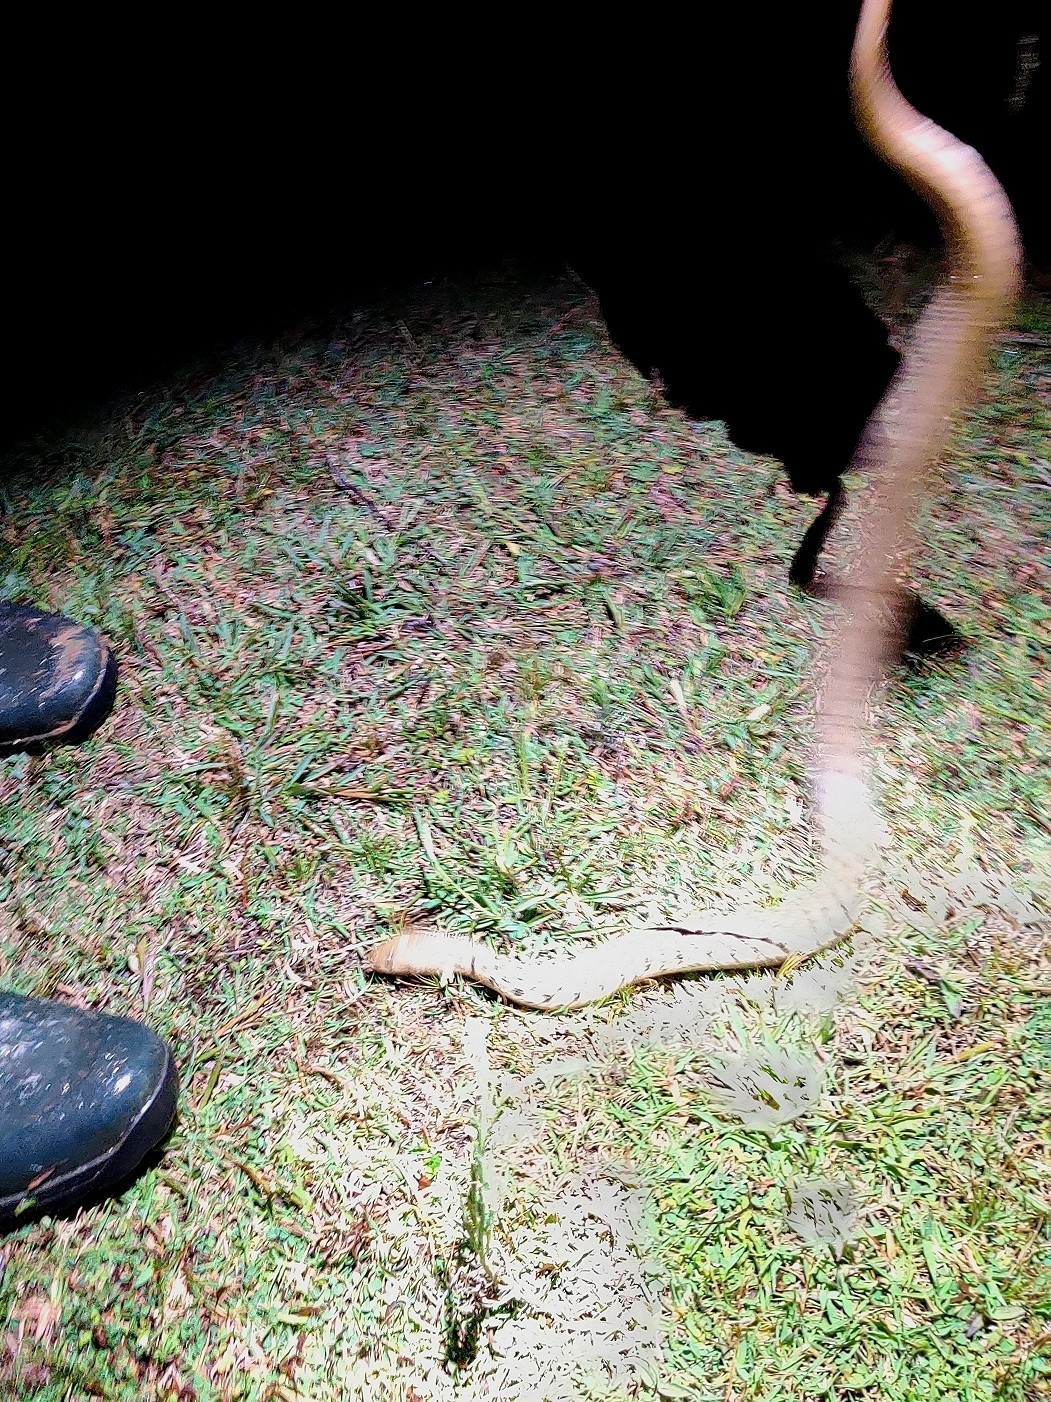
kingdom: Animalia
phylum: Chordata
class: Squamata
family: Colubridae
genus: Fowlea
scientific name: Fowlea piscator
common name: Asiatic water snake
